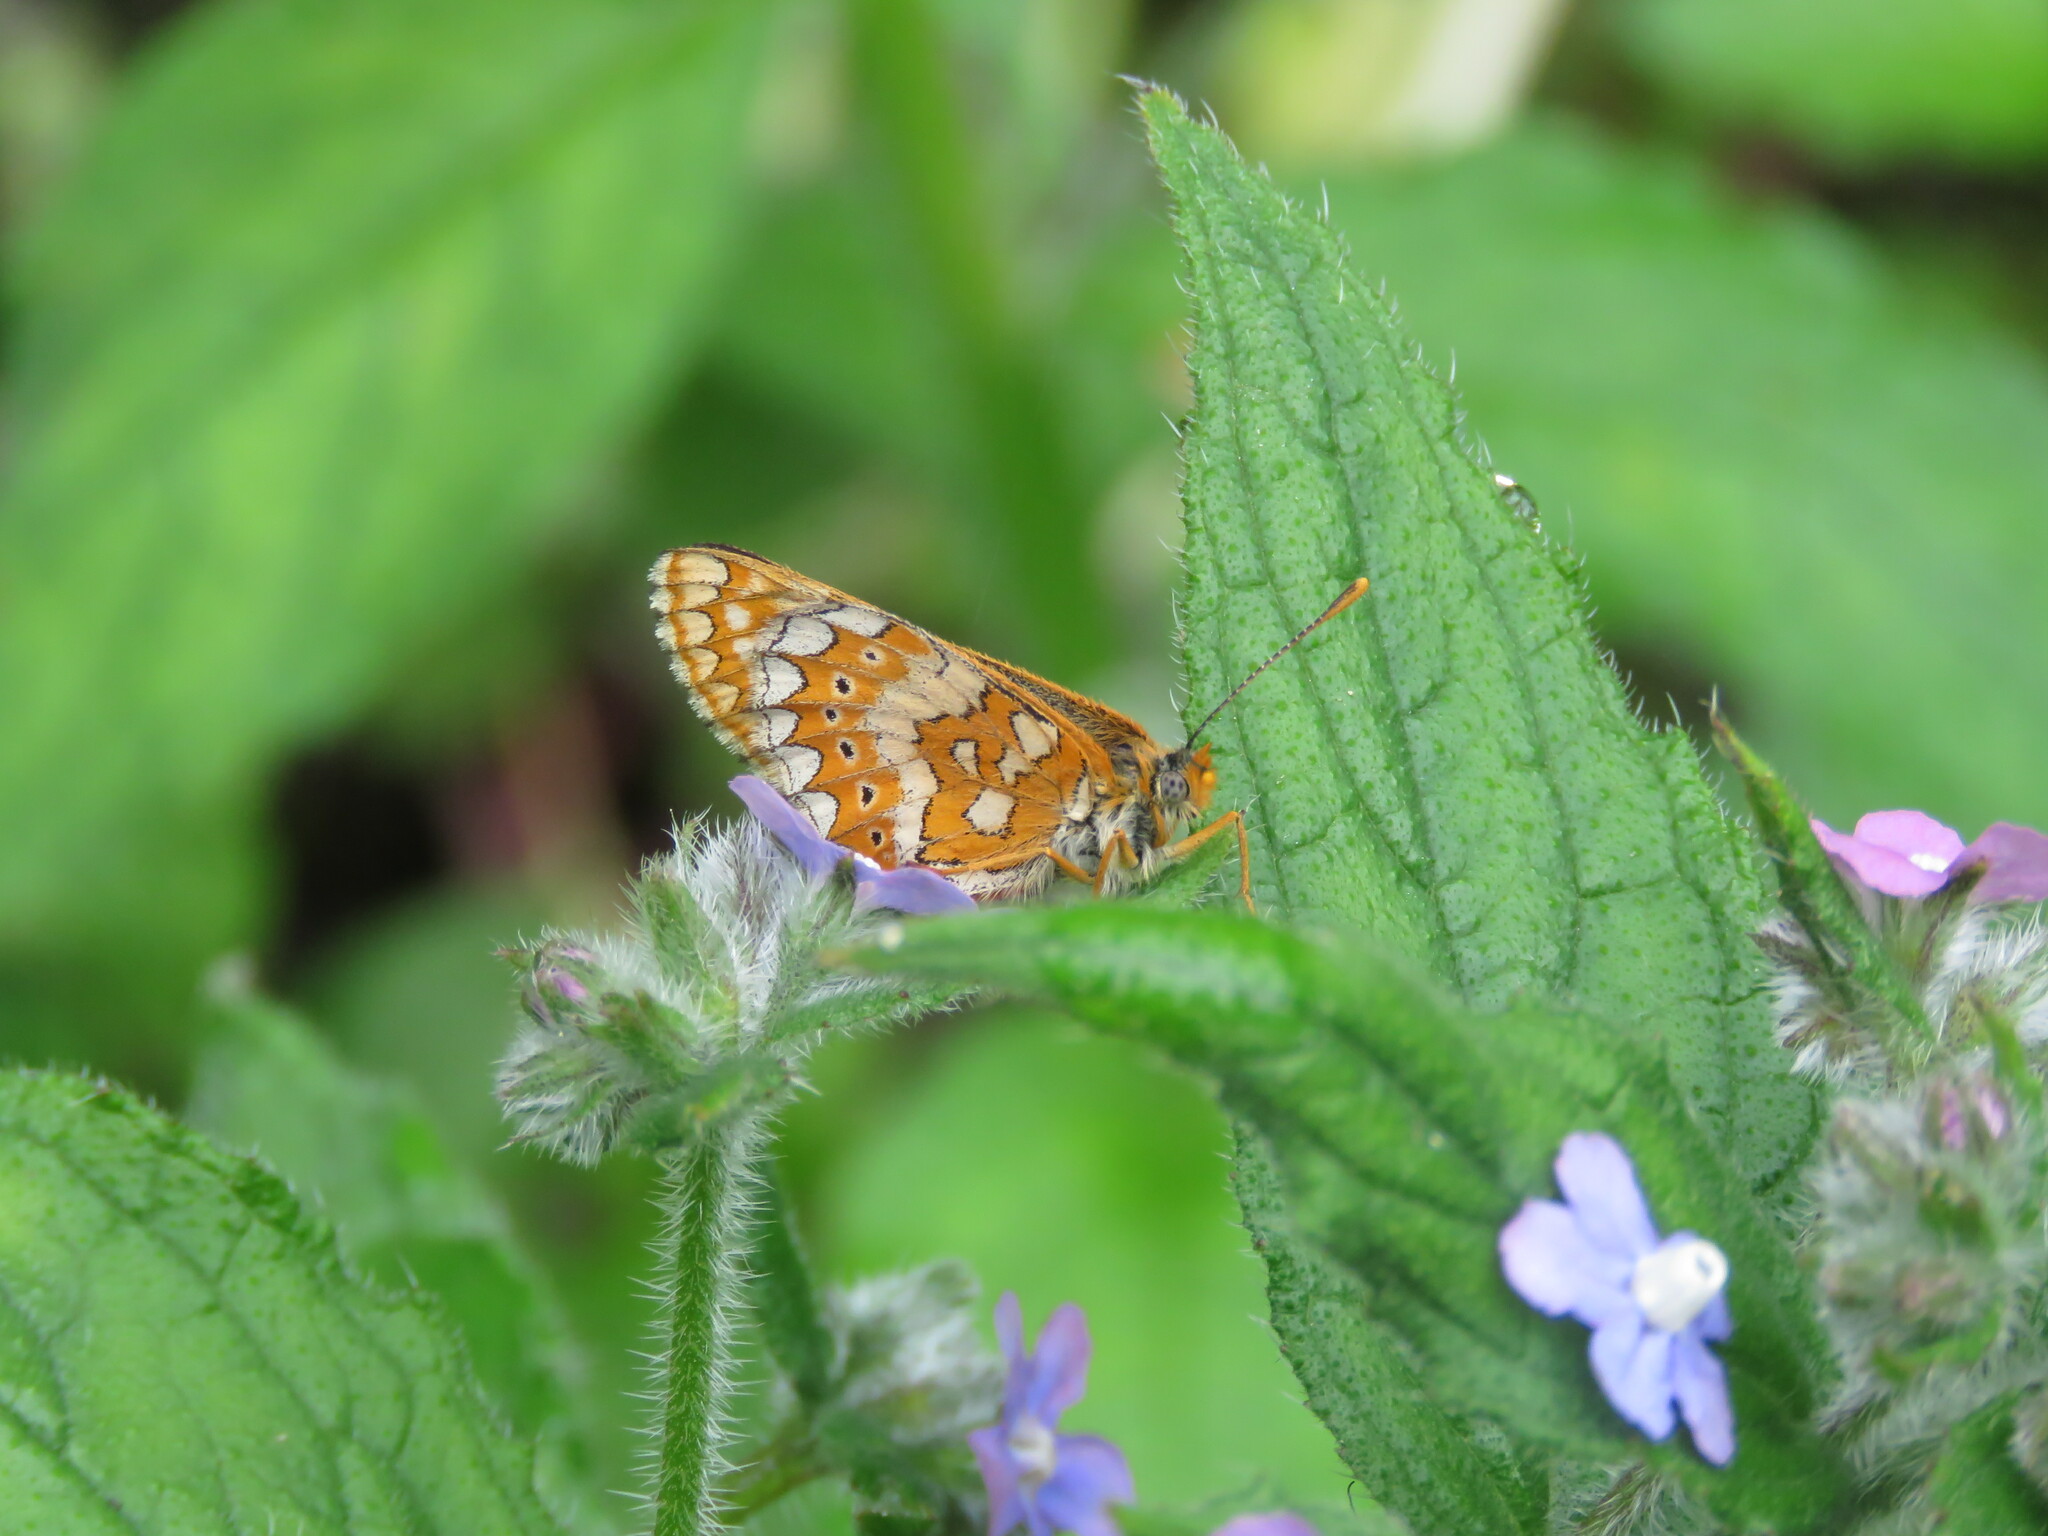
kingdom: Animalia
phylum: Arthropoda
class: Insecta
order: Lepidoptera
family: Nymphalidae
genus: Euphydryas
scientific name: Euphydryas aurinia
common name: Marsh fritillary
